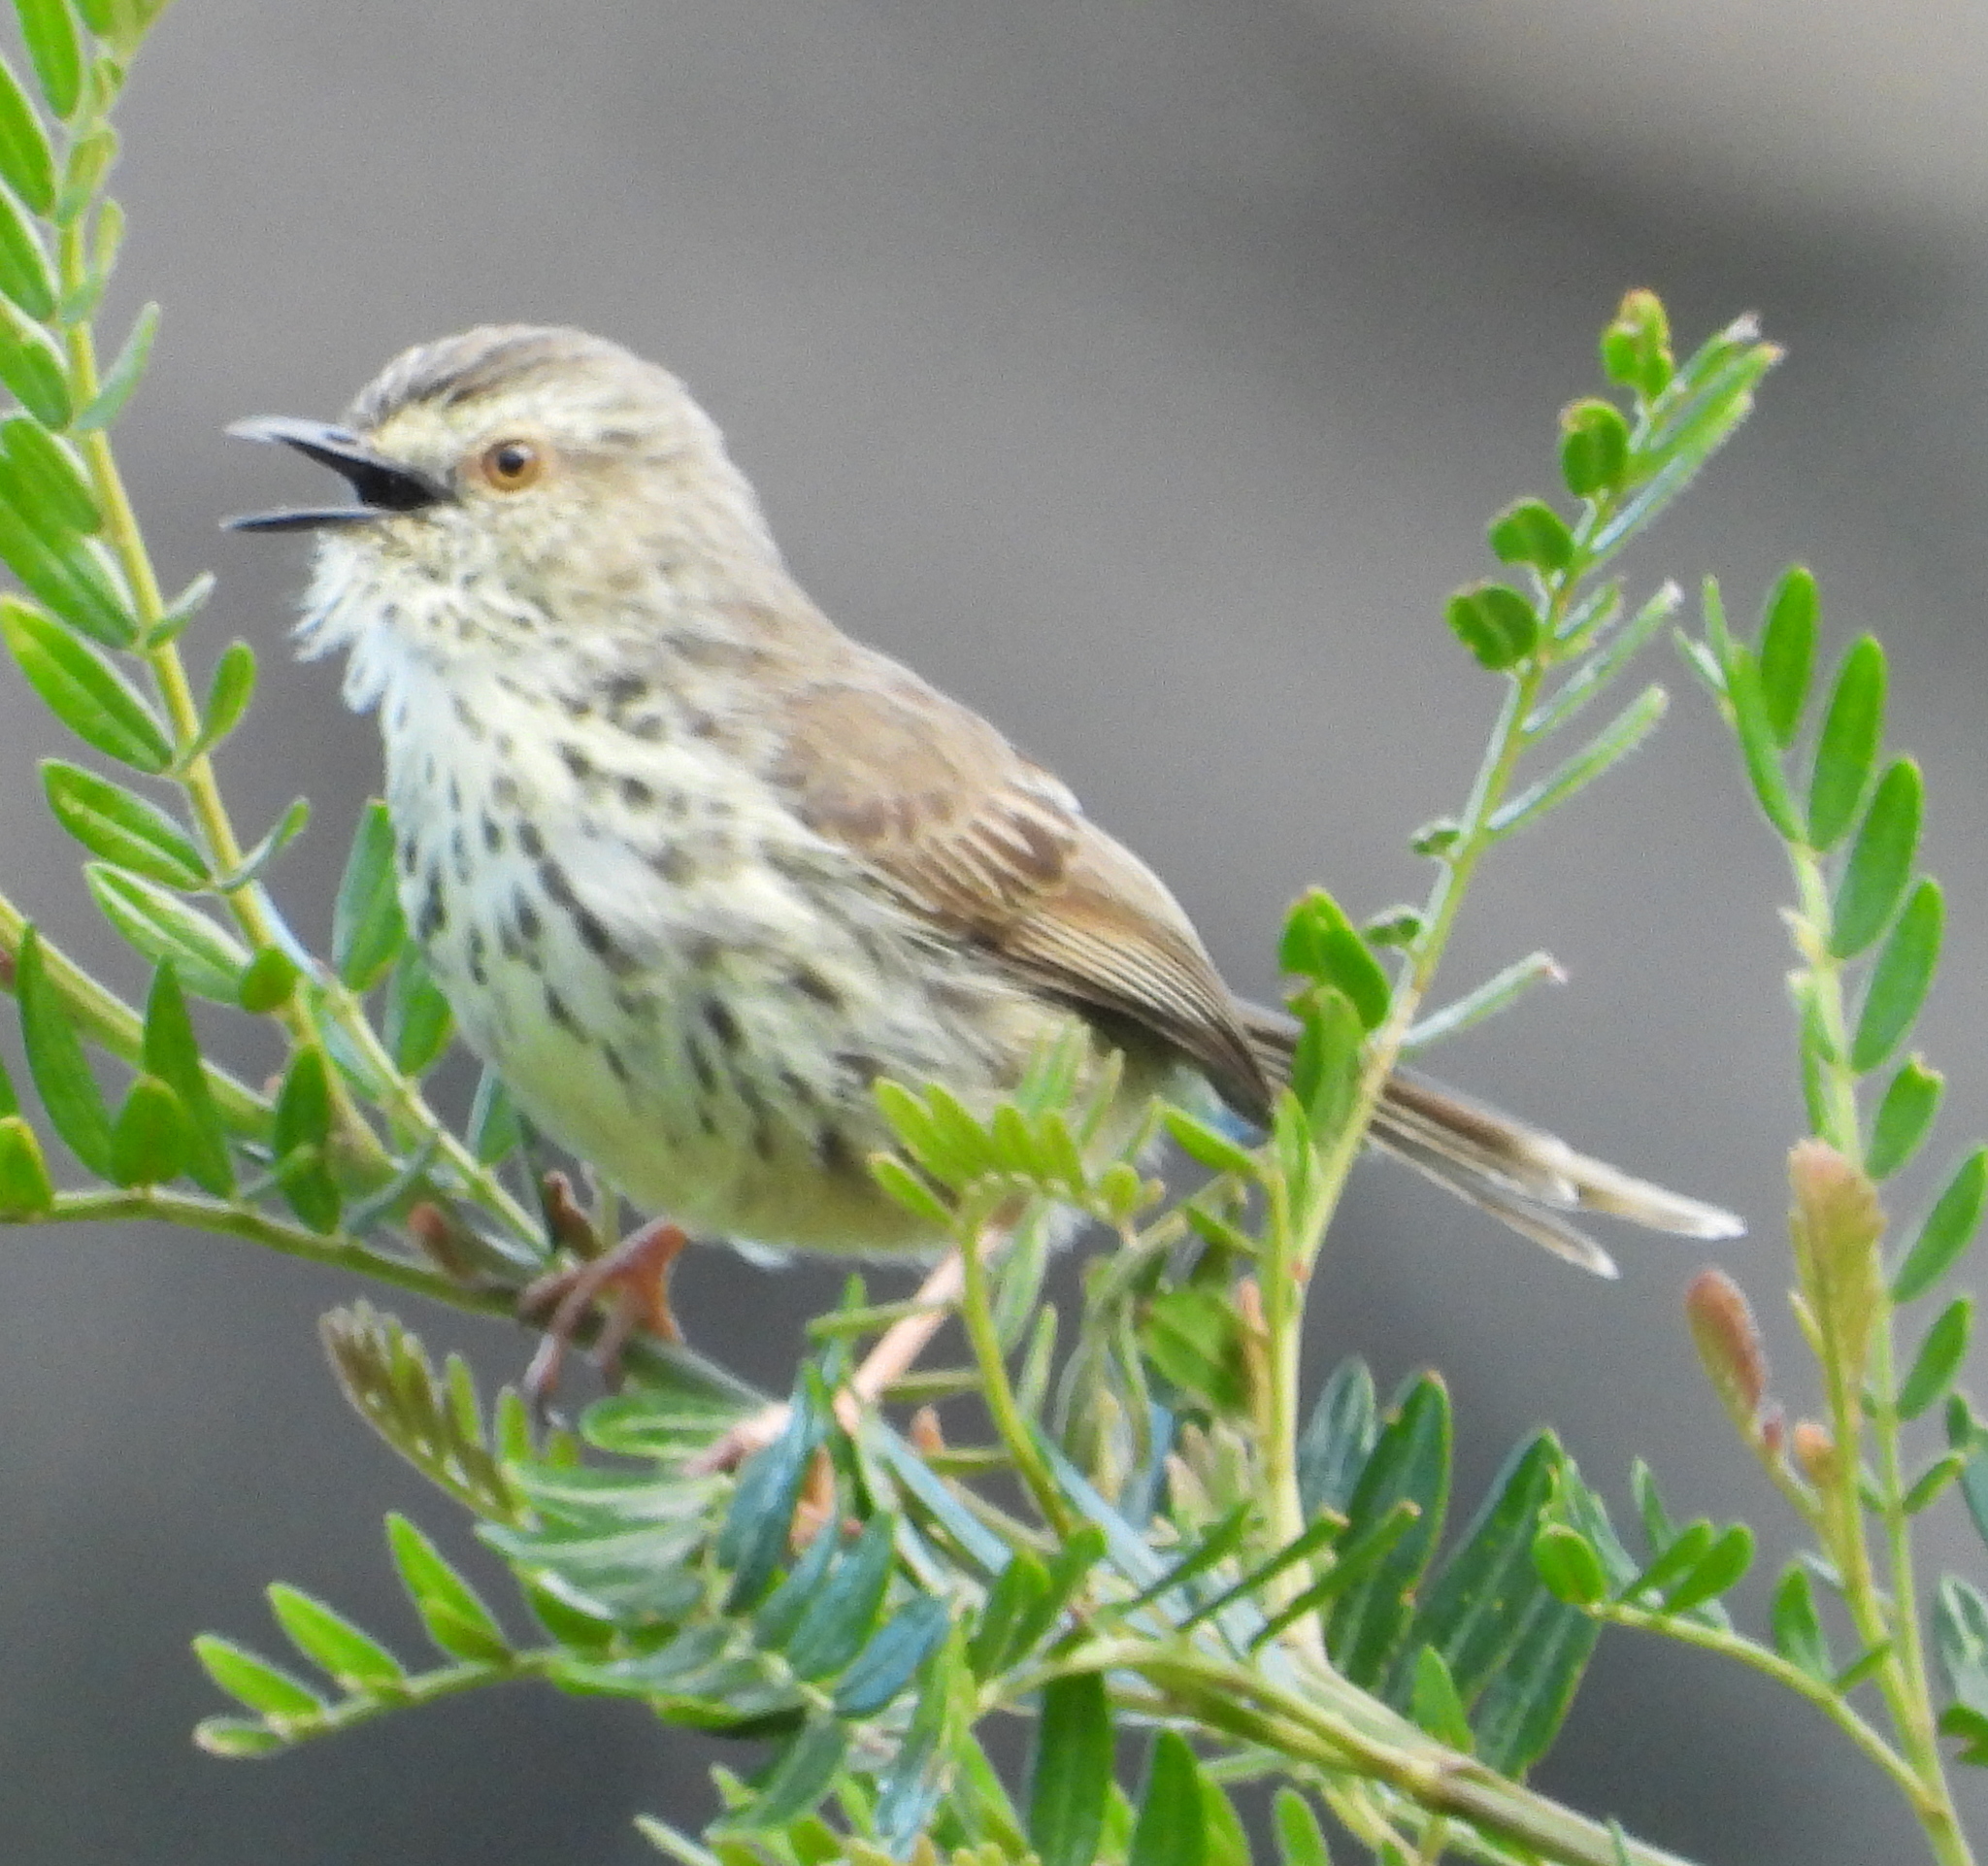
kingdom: Animalia
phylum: Chordata
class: Aves
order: Passeriformes
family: Cisticolidae
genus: Prinia
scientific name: Prinia maculosa
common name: Karoo prinia
